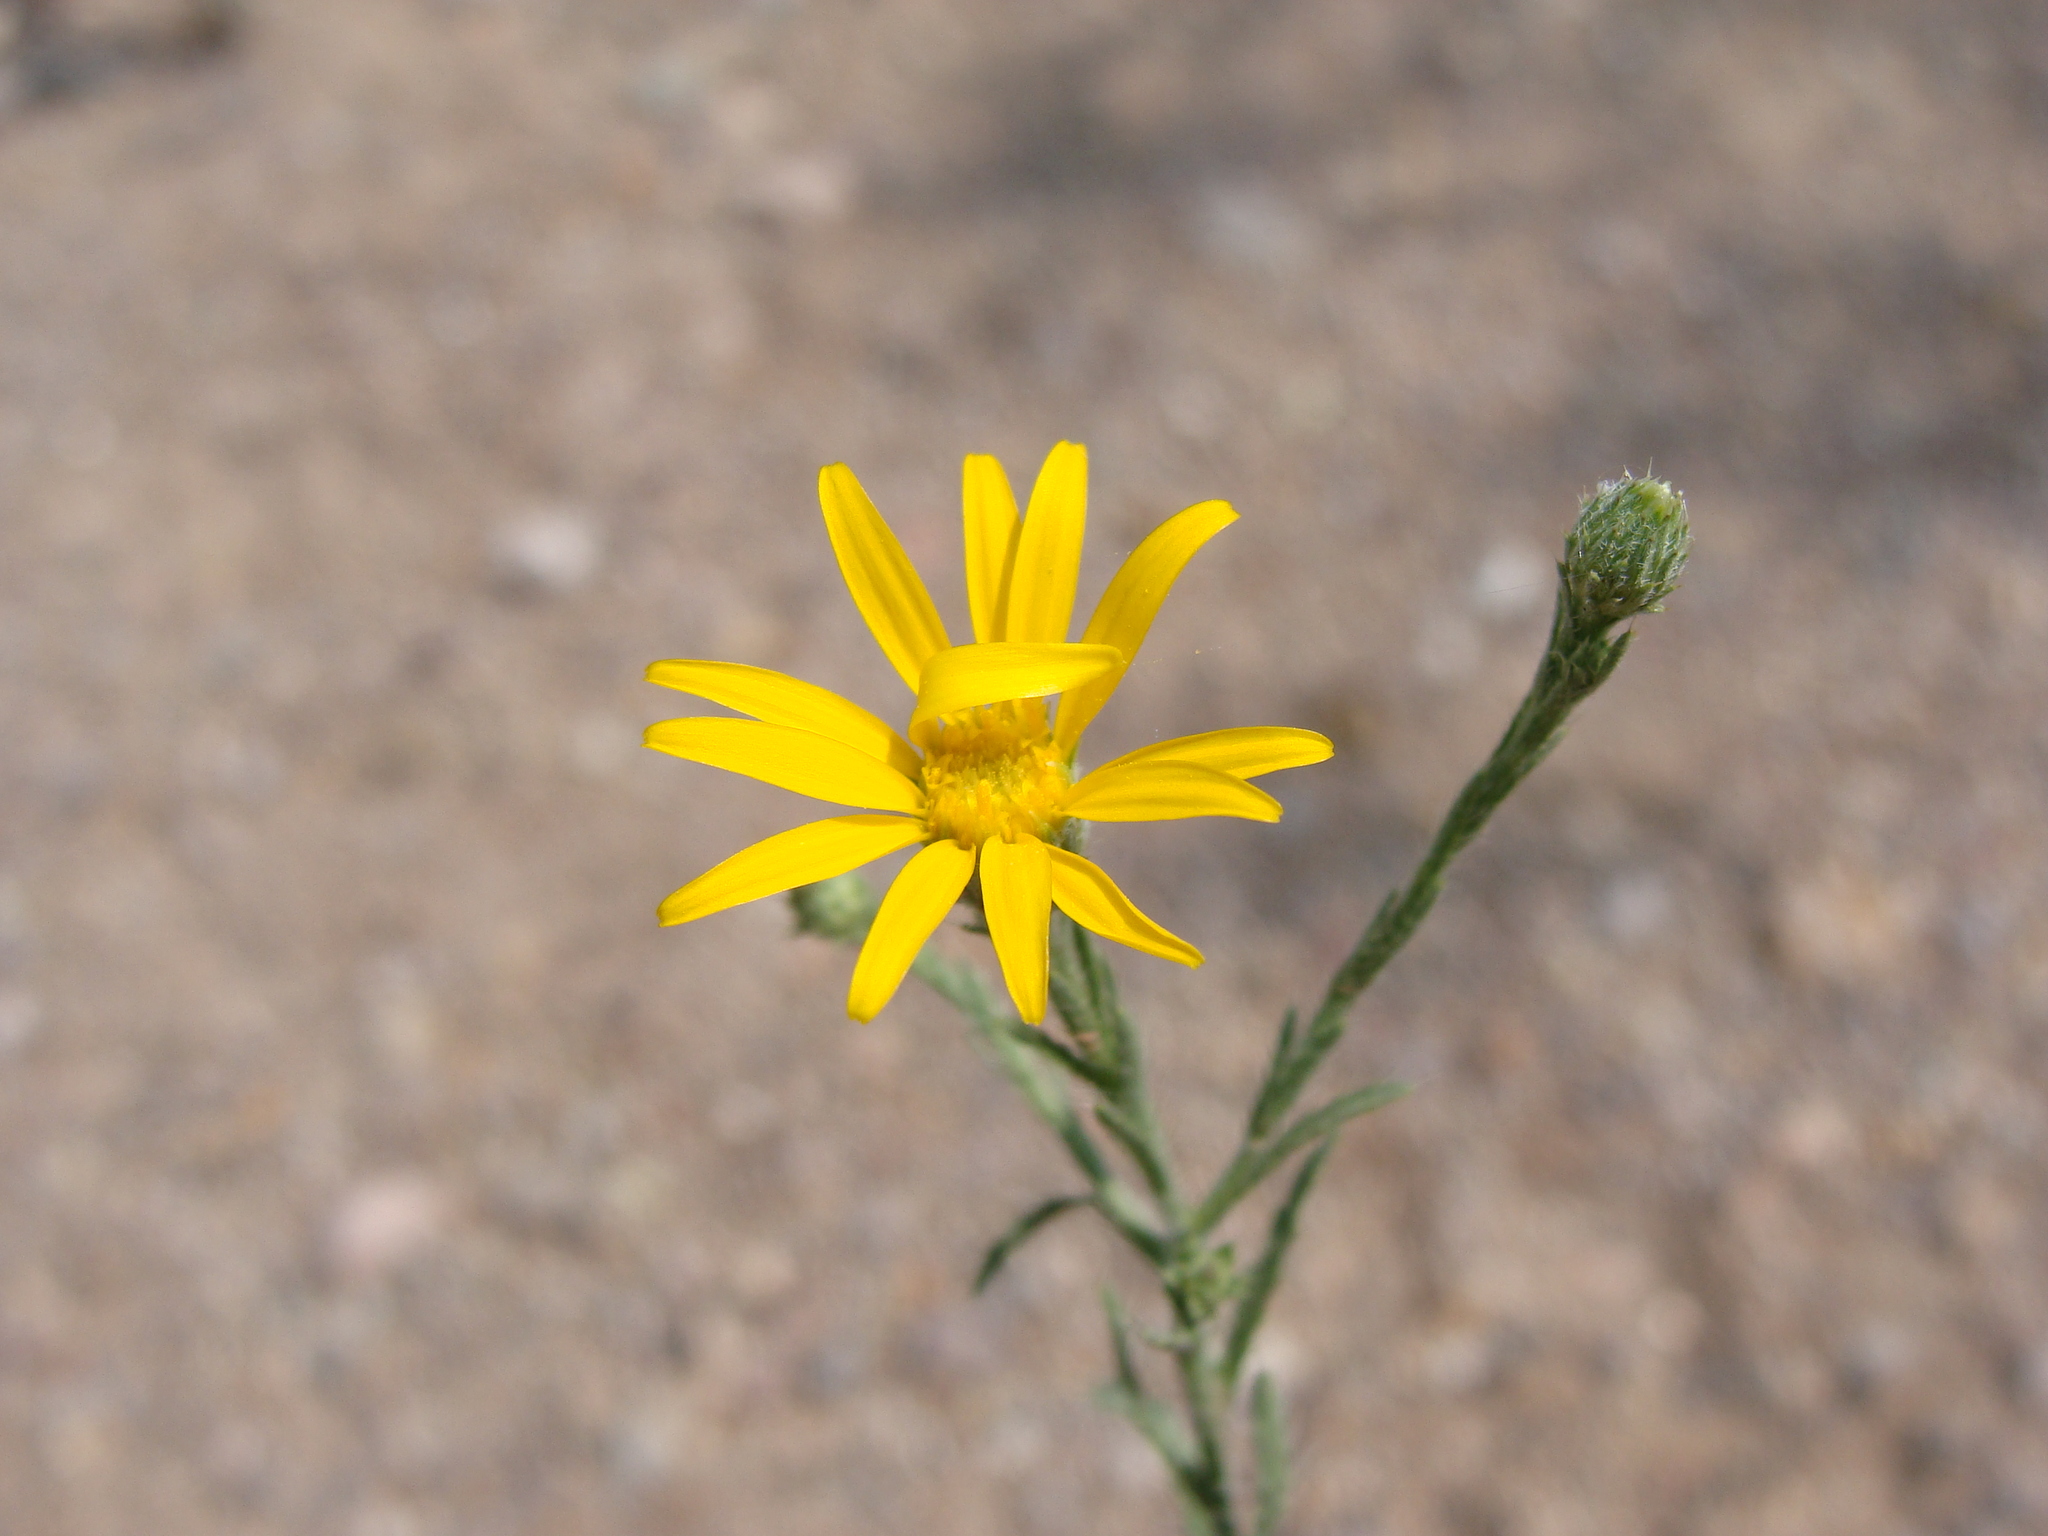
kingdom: Plantae
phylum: Tracheophyta
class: Magnoliopsida
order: Asterales
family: Asteraceae
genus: Xanthisma
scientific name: Xanthisma gracile
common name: Slender goldenweed
